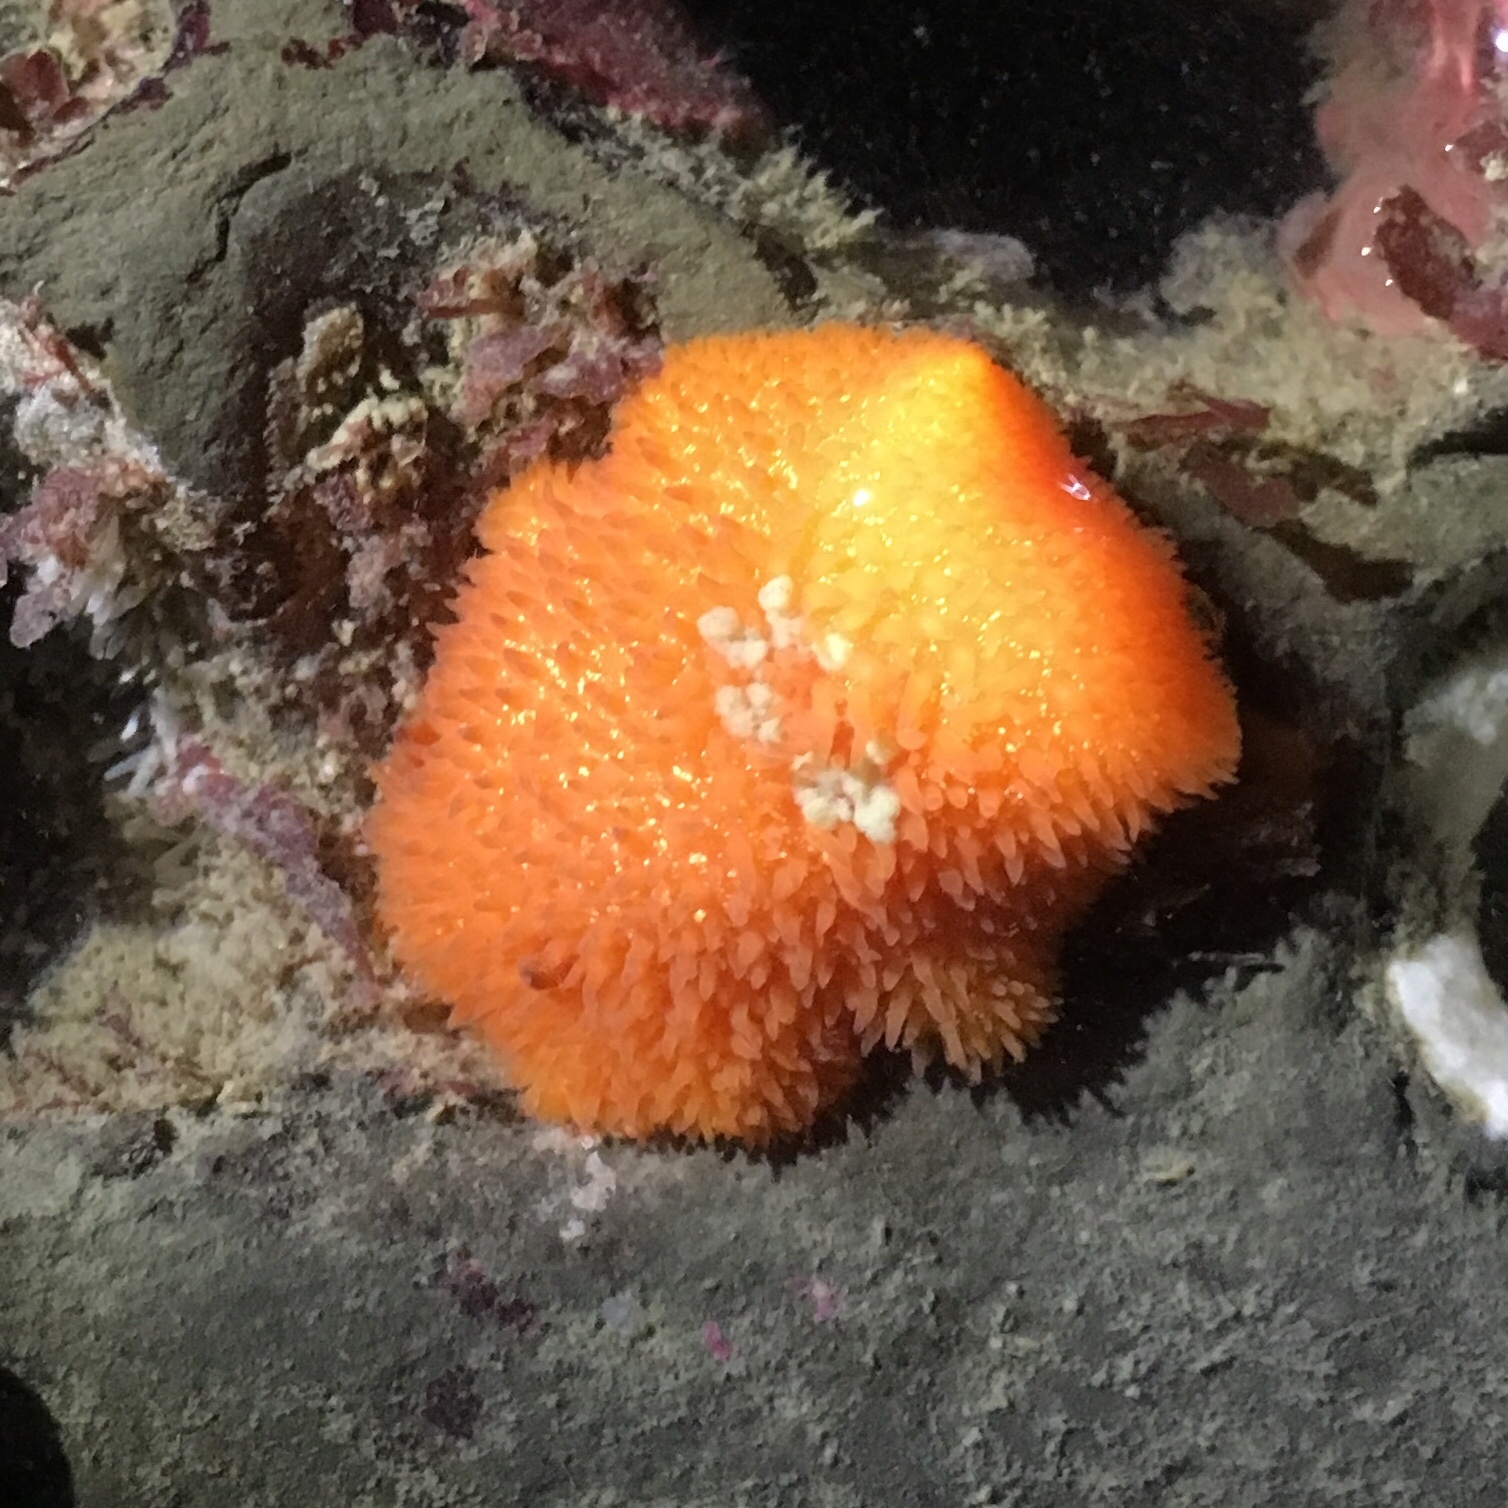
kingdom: Animalia
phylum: Mollusca
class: Gastropoda
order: Nudibranchia
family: Onchidorididae
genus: Acanthodoris
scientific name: Acanthodoris lutea
